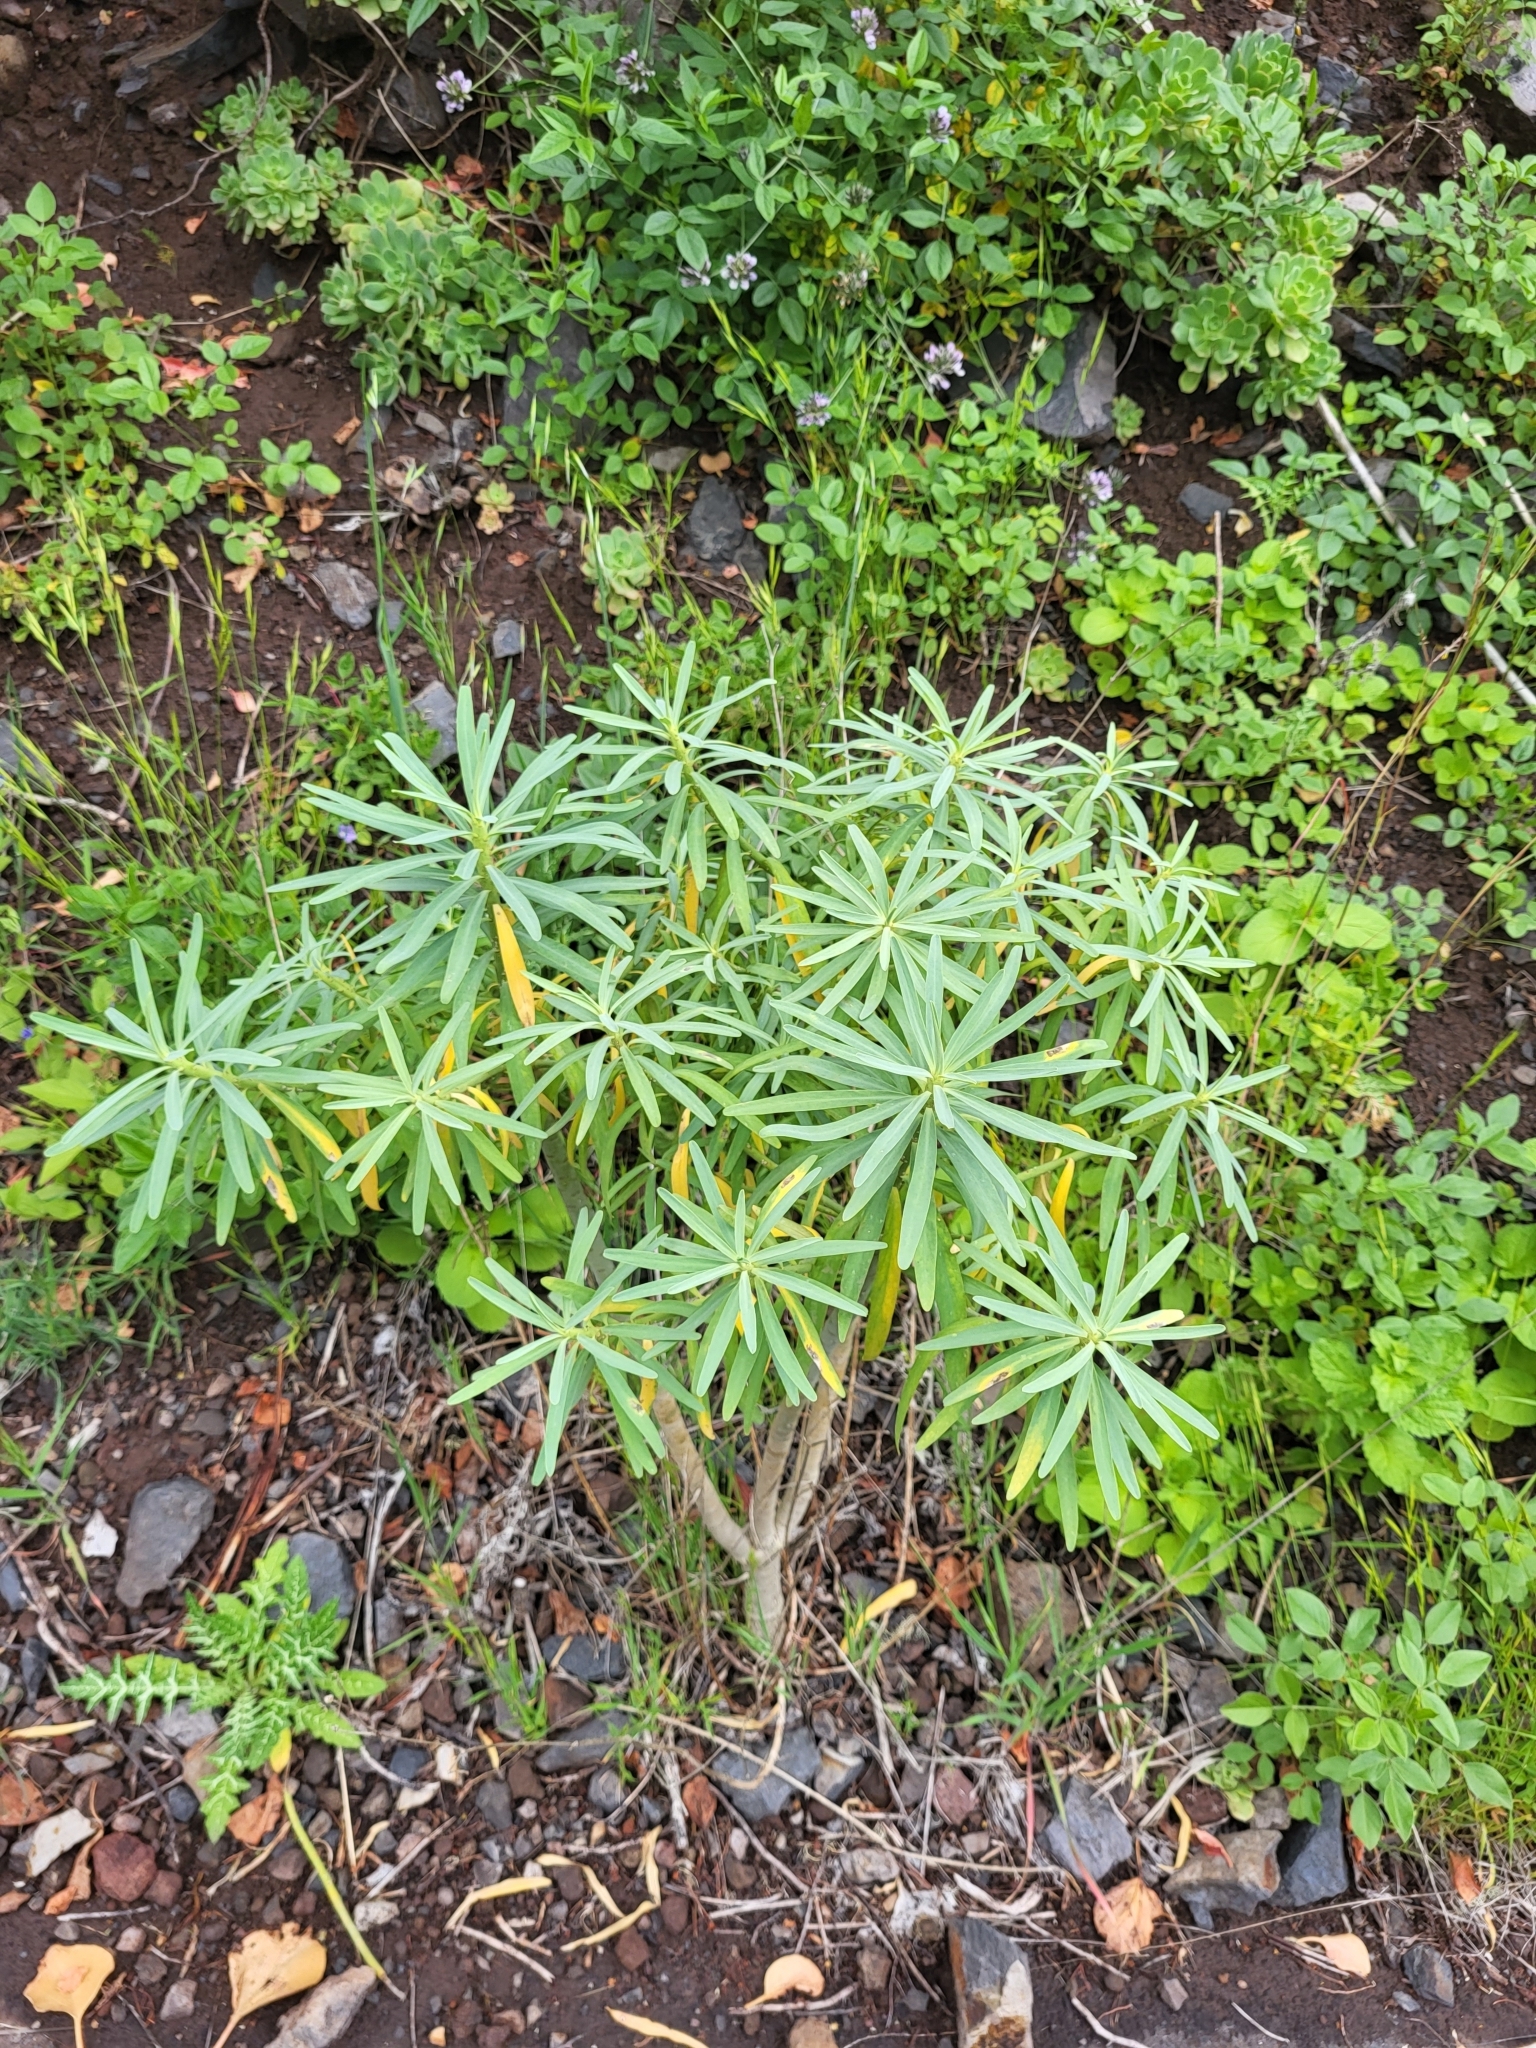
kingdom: Plantae
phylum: Tracheophyta
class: Magnoliopsida
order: Malpighiales
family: Euphorbiaceae
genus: Euphorbia
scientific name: Euphorbia lamarckii
